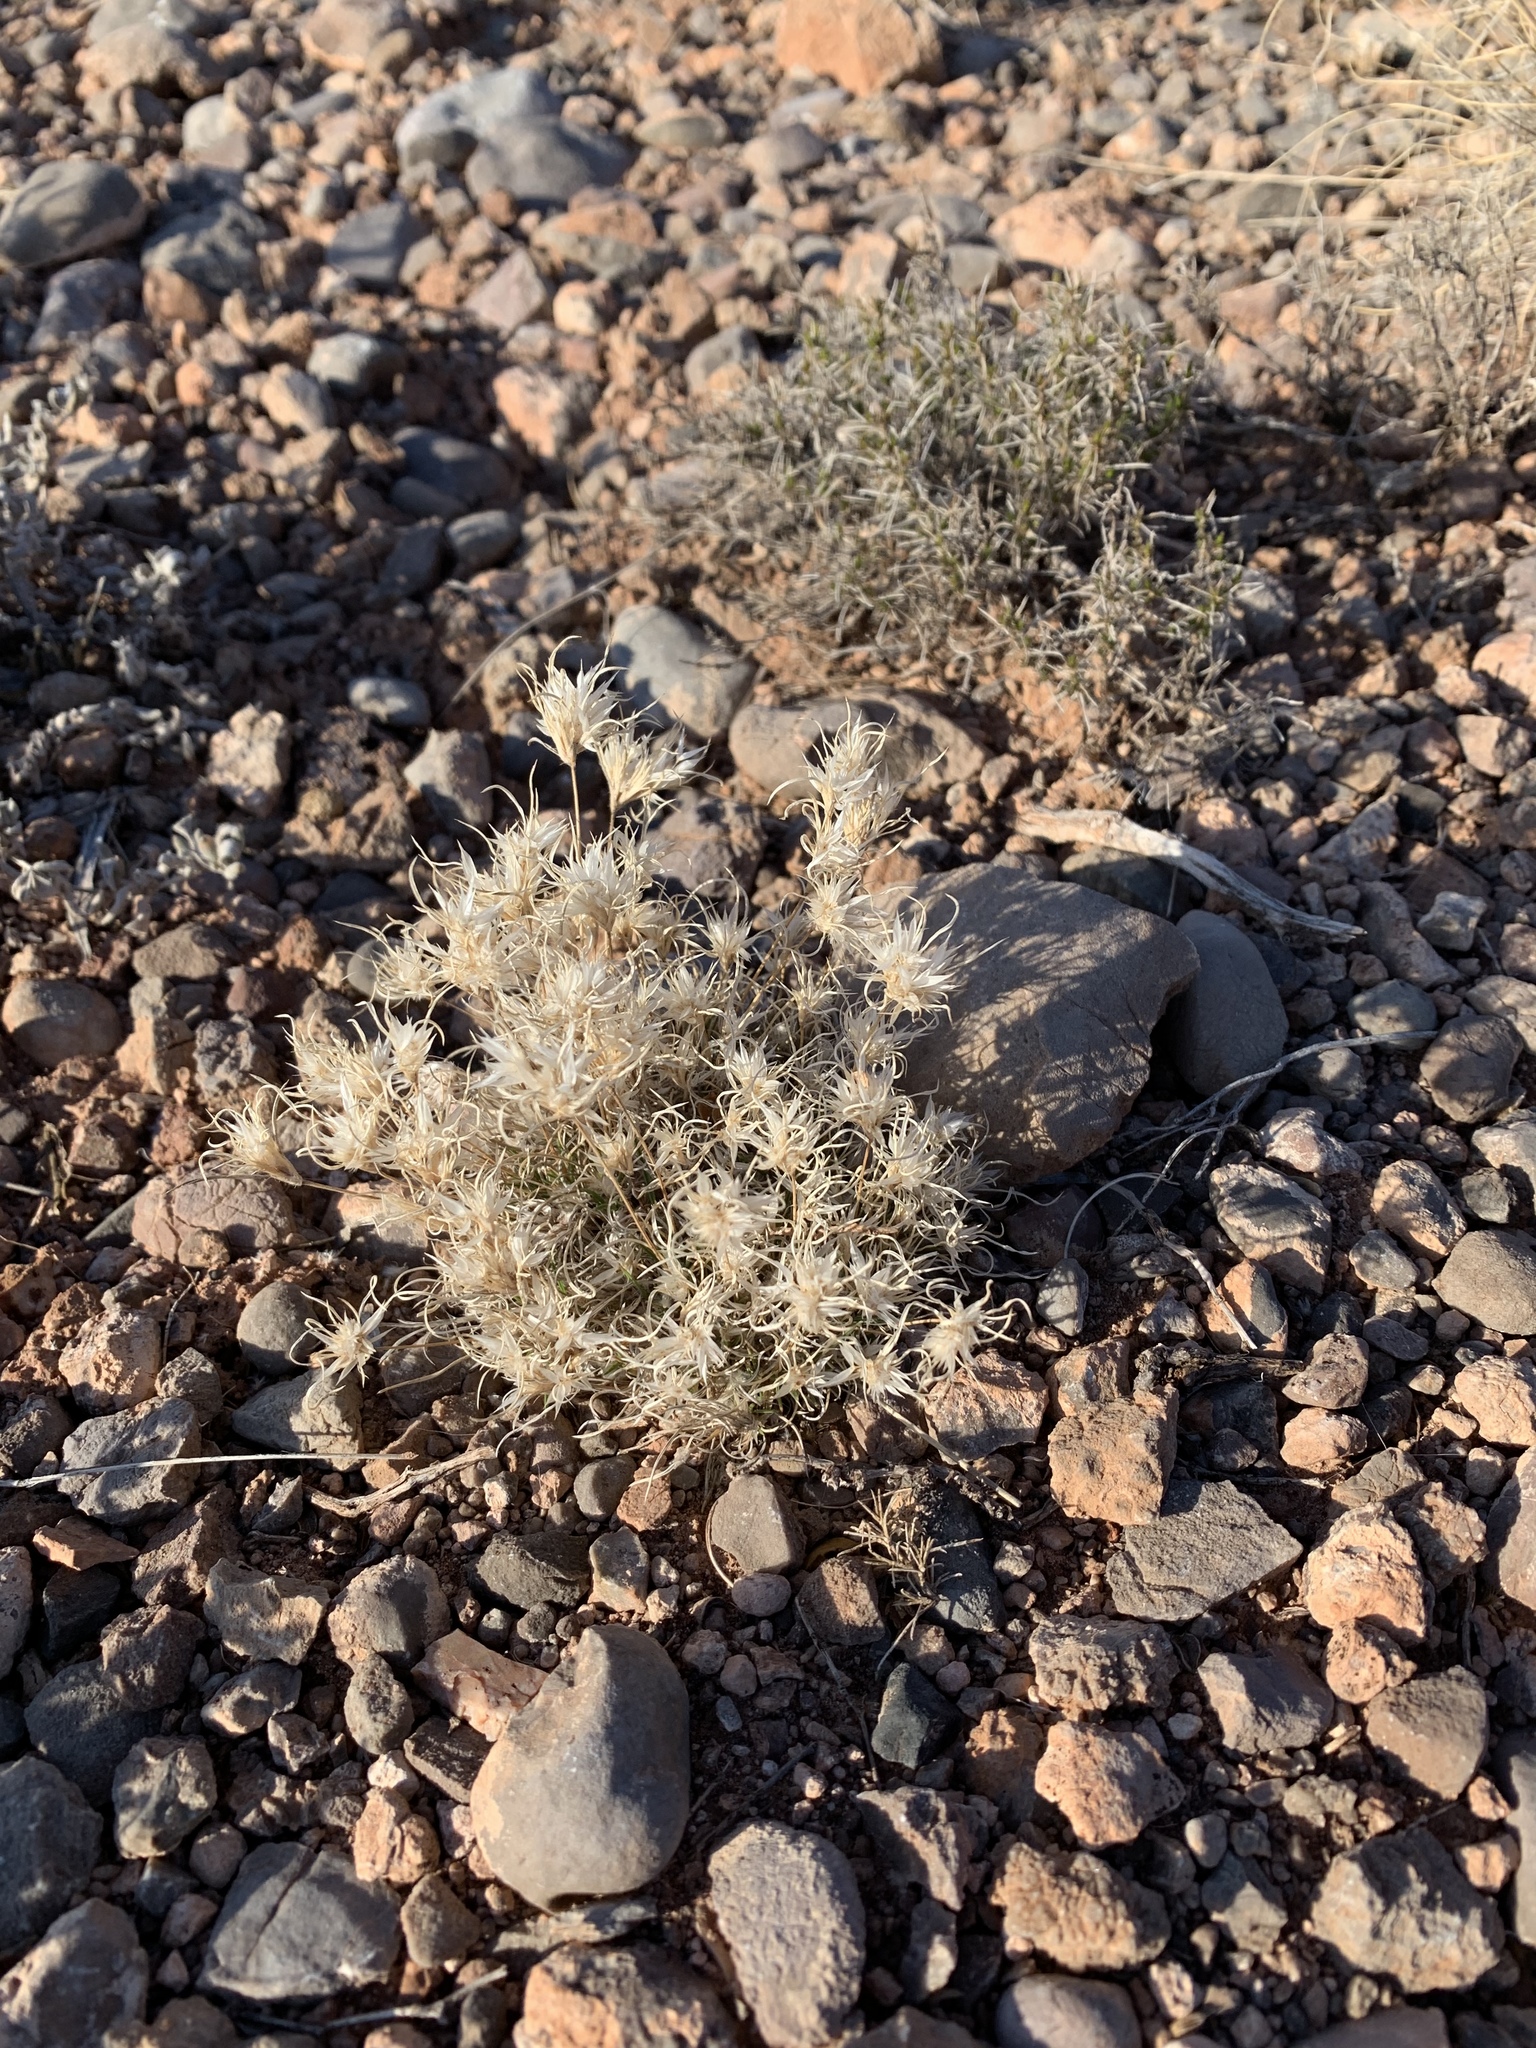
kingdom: Plantae
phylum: Tracheophyta
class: Liliopsida
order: Poales
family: Poaceae
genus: Dasyochloa
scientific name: Dasyochloa pulchella
